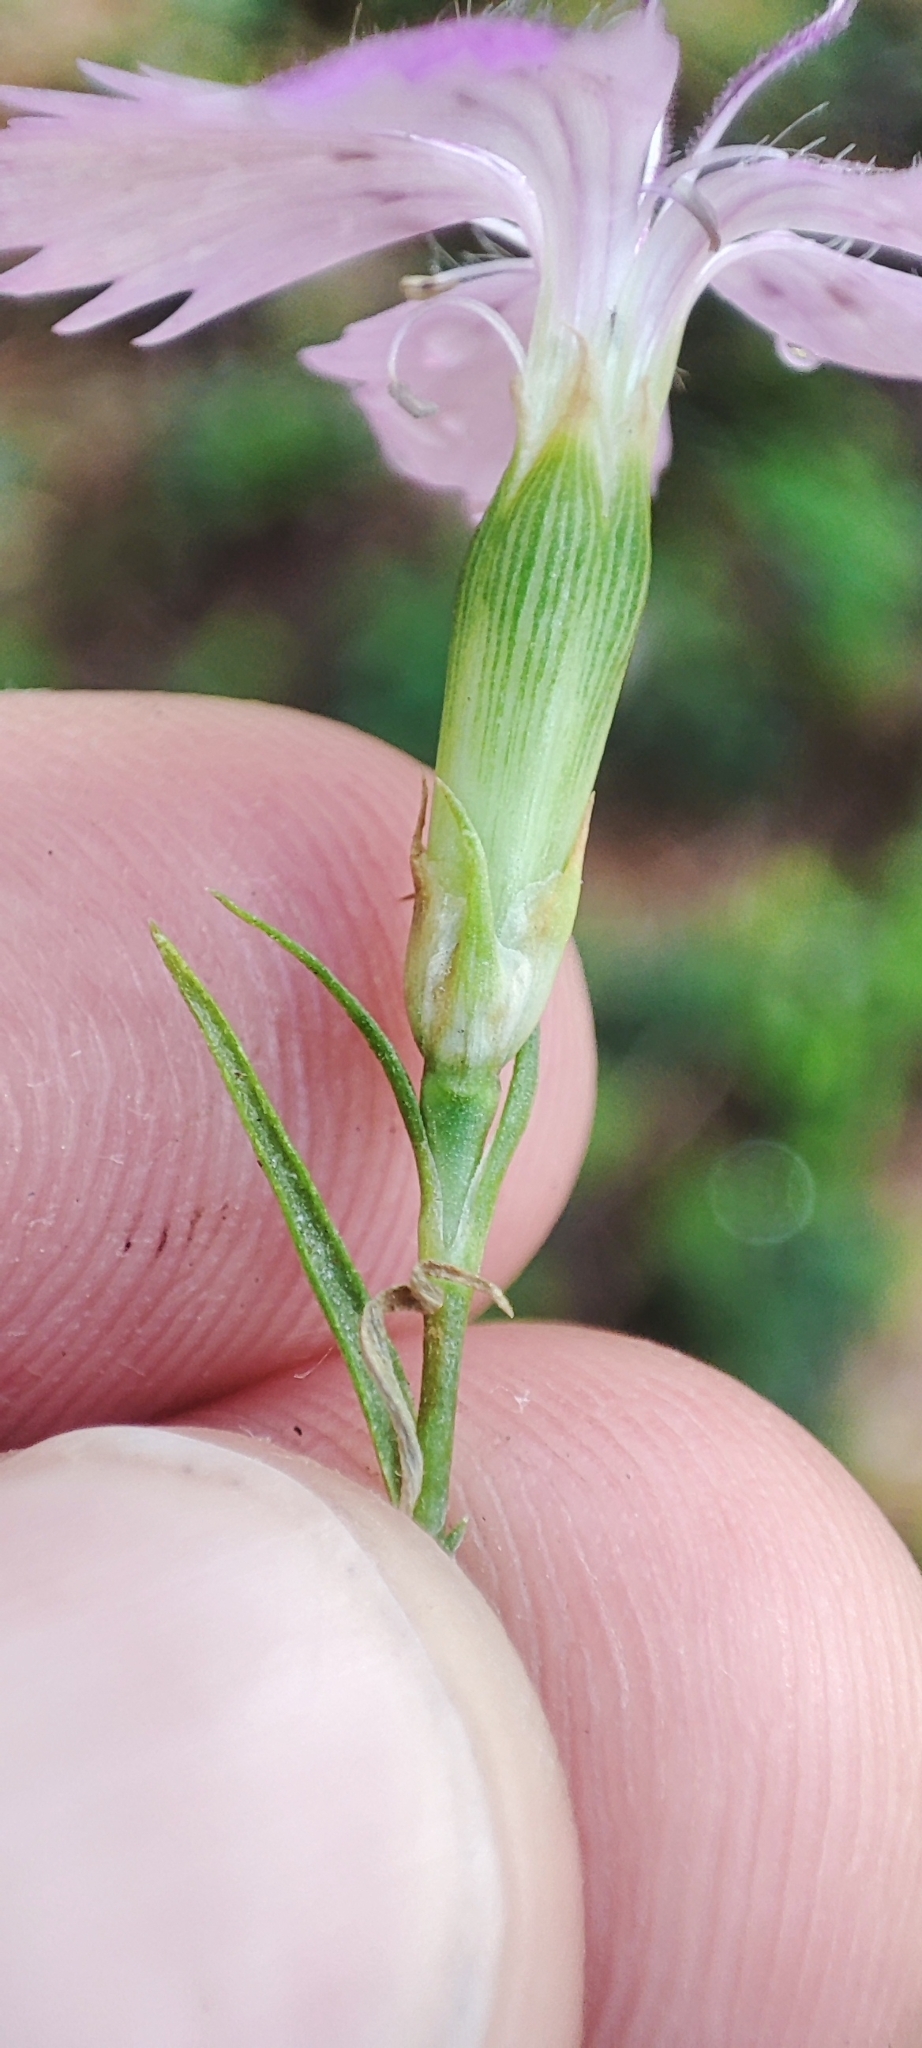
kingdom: Plantae
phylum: Tracheophyta
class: Magnoliopsida
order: Caryophyllales
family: Caryophyllaceae
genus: Dianthus
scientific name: Dianthus chinensis
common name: Rainbow pink
